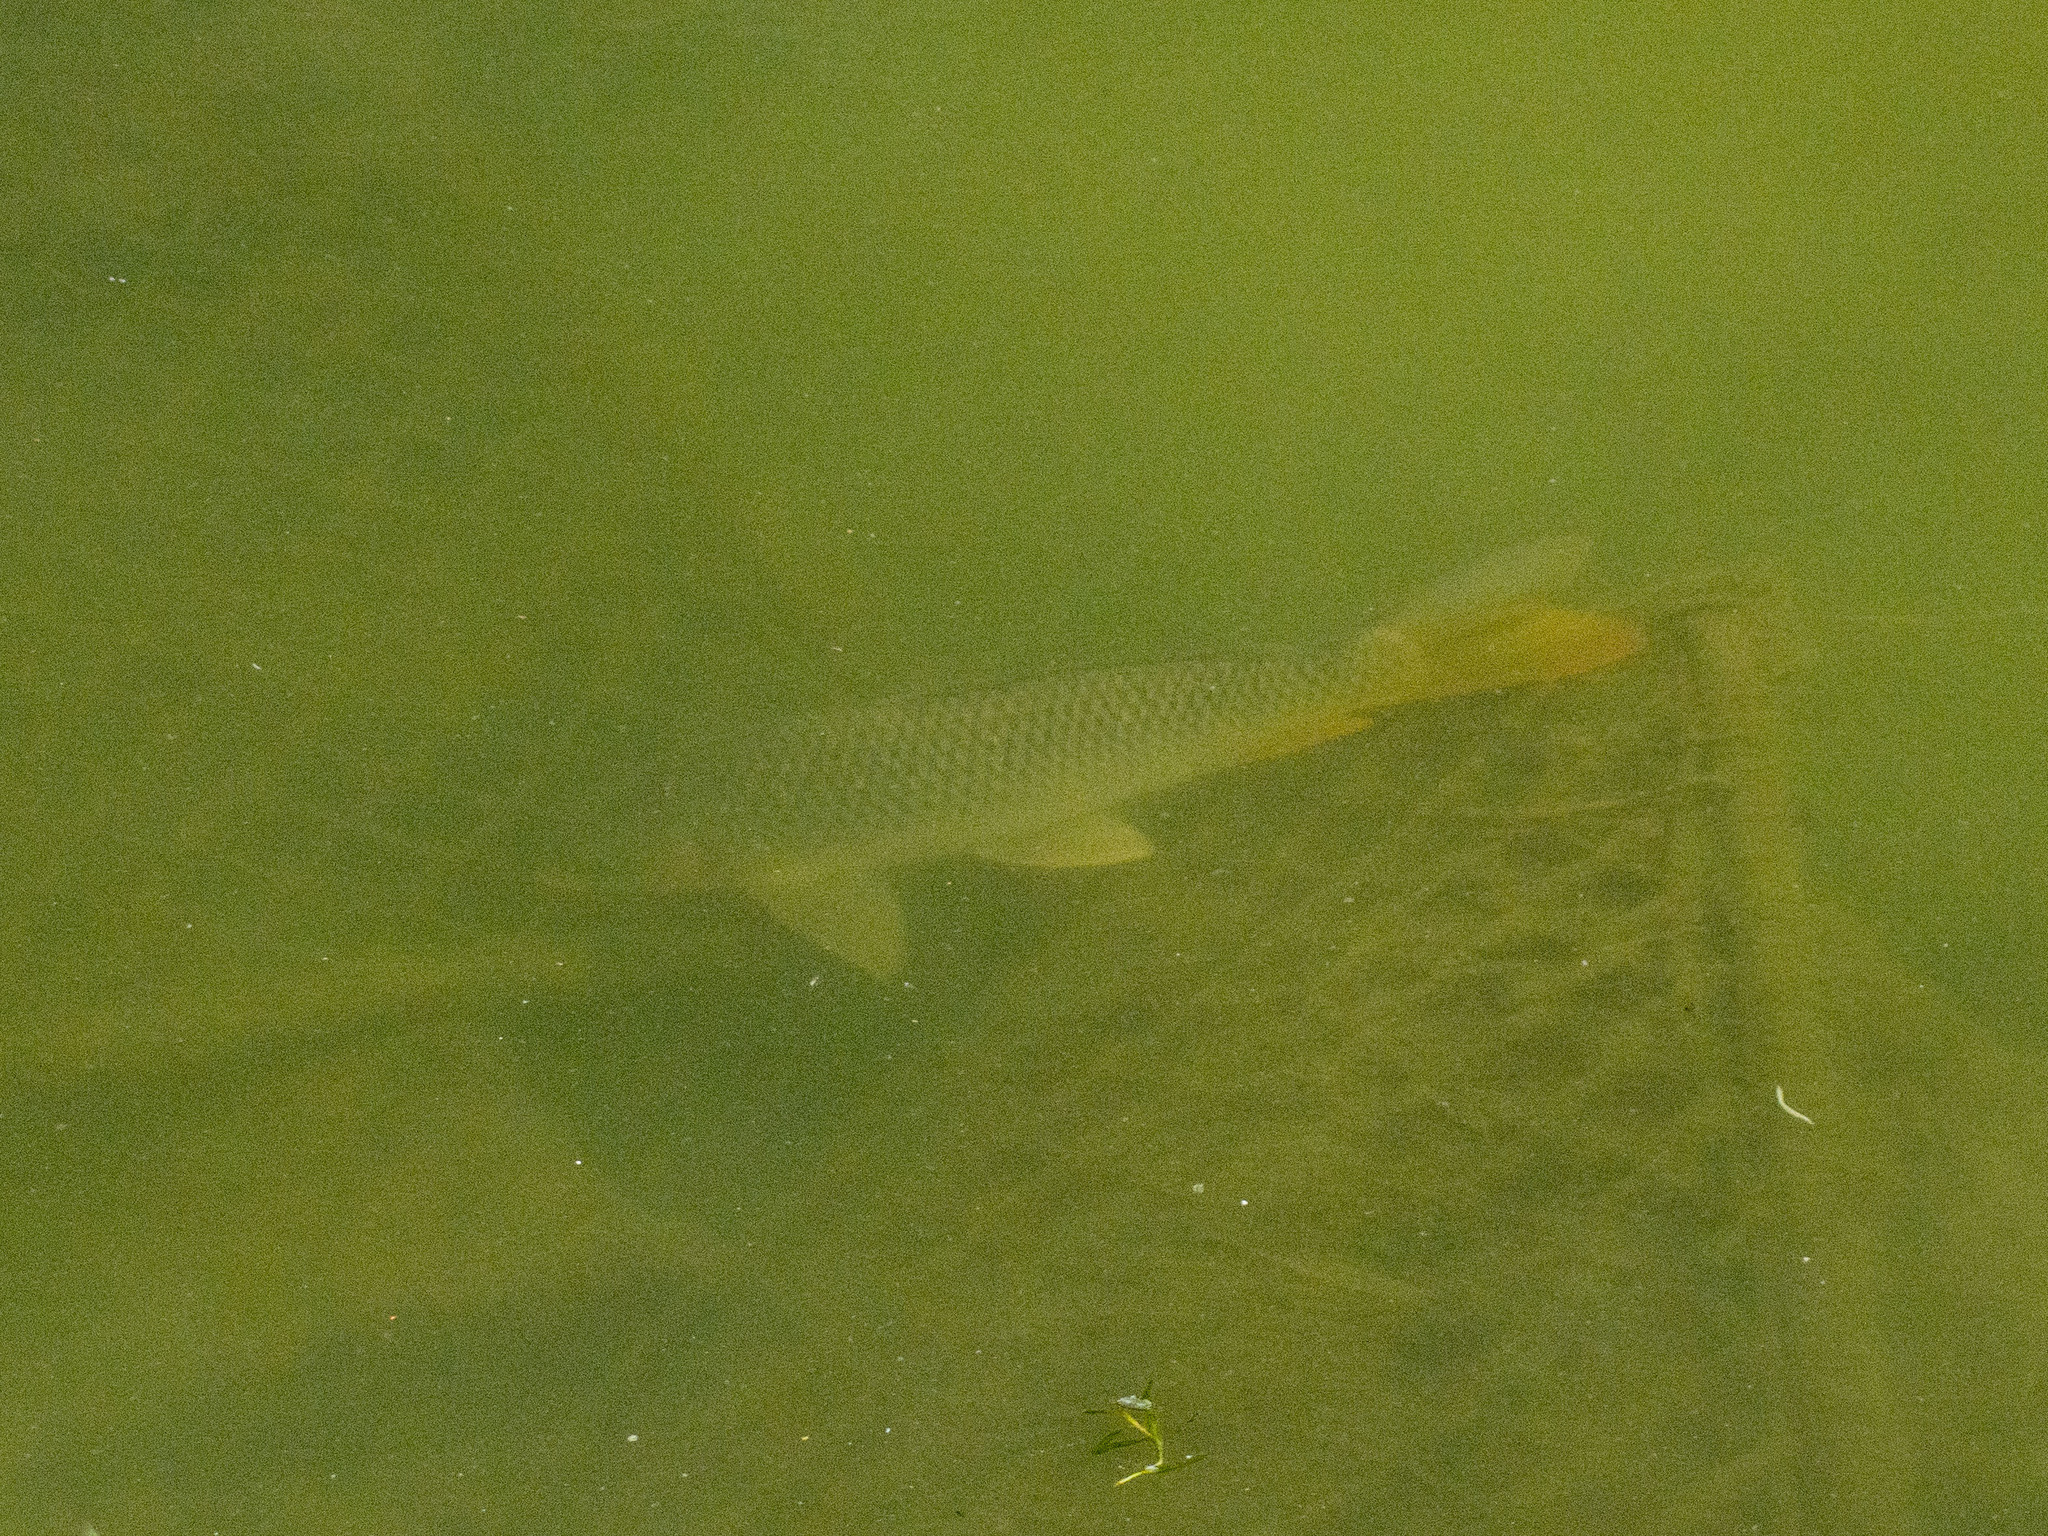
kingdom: Animalia
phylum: Chordata
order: Cypriniformes
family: Cyprinidae
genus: Cyprinus
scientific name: Cyprinus rubrofuscus
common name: Koi
